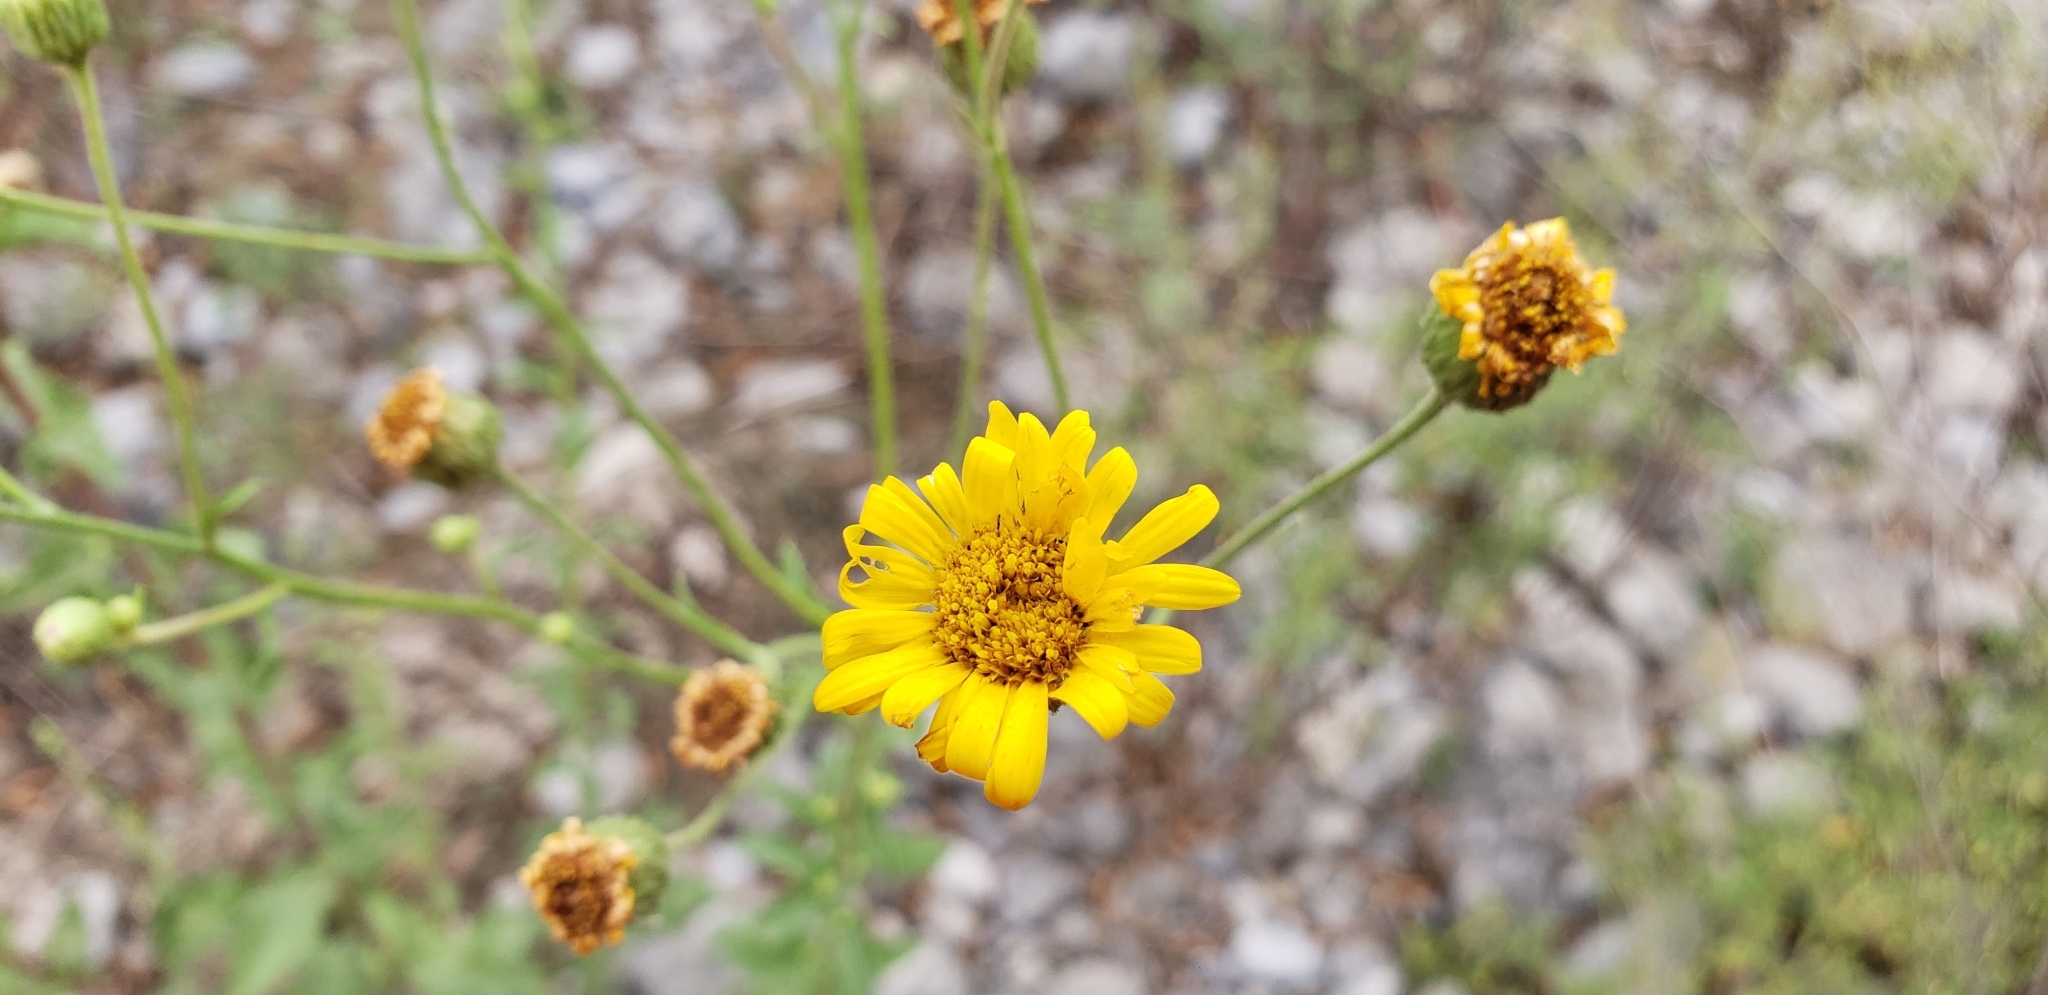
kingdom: Plantae
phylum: Tracheophyta
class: Magnoliopsida
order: Asterales
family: Asteraceae
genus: Heterotheca
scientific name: Heterotheca subaxillaris
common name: Camphorweed
